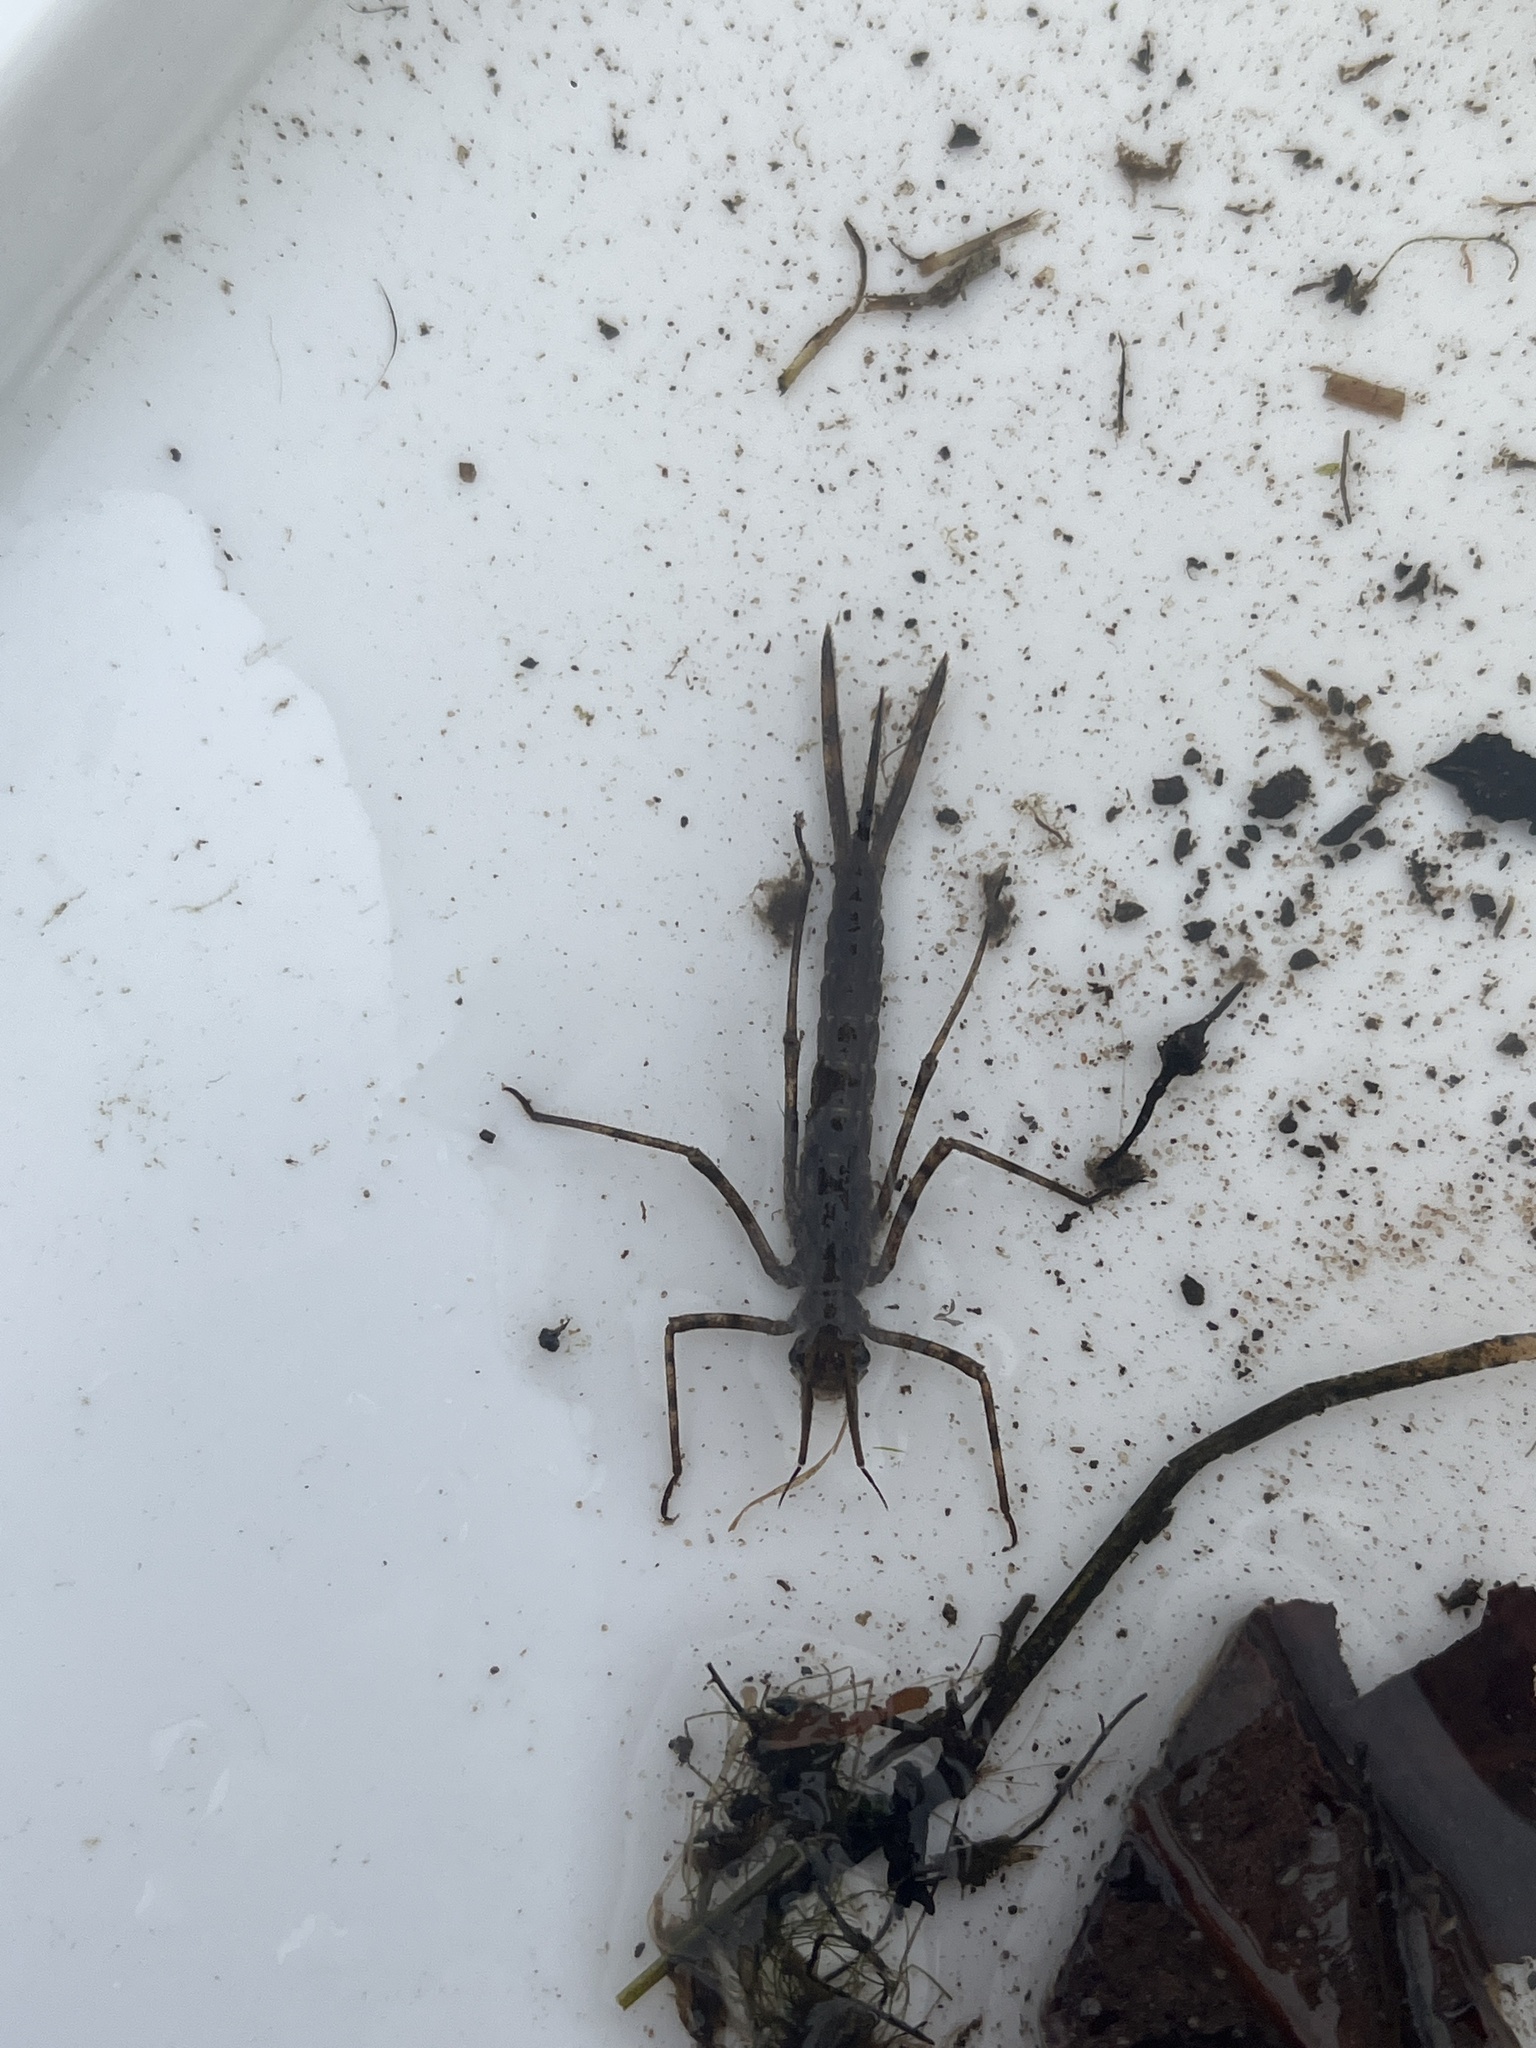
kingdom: Animalia
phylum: Arthropoda
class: Insecta
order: Odonata
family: Calopterygidae
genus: Calopteryx
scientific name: Calopteryx splendens
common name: Banded demoiselle
